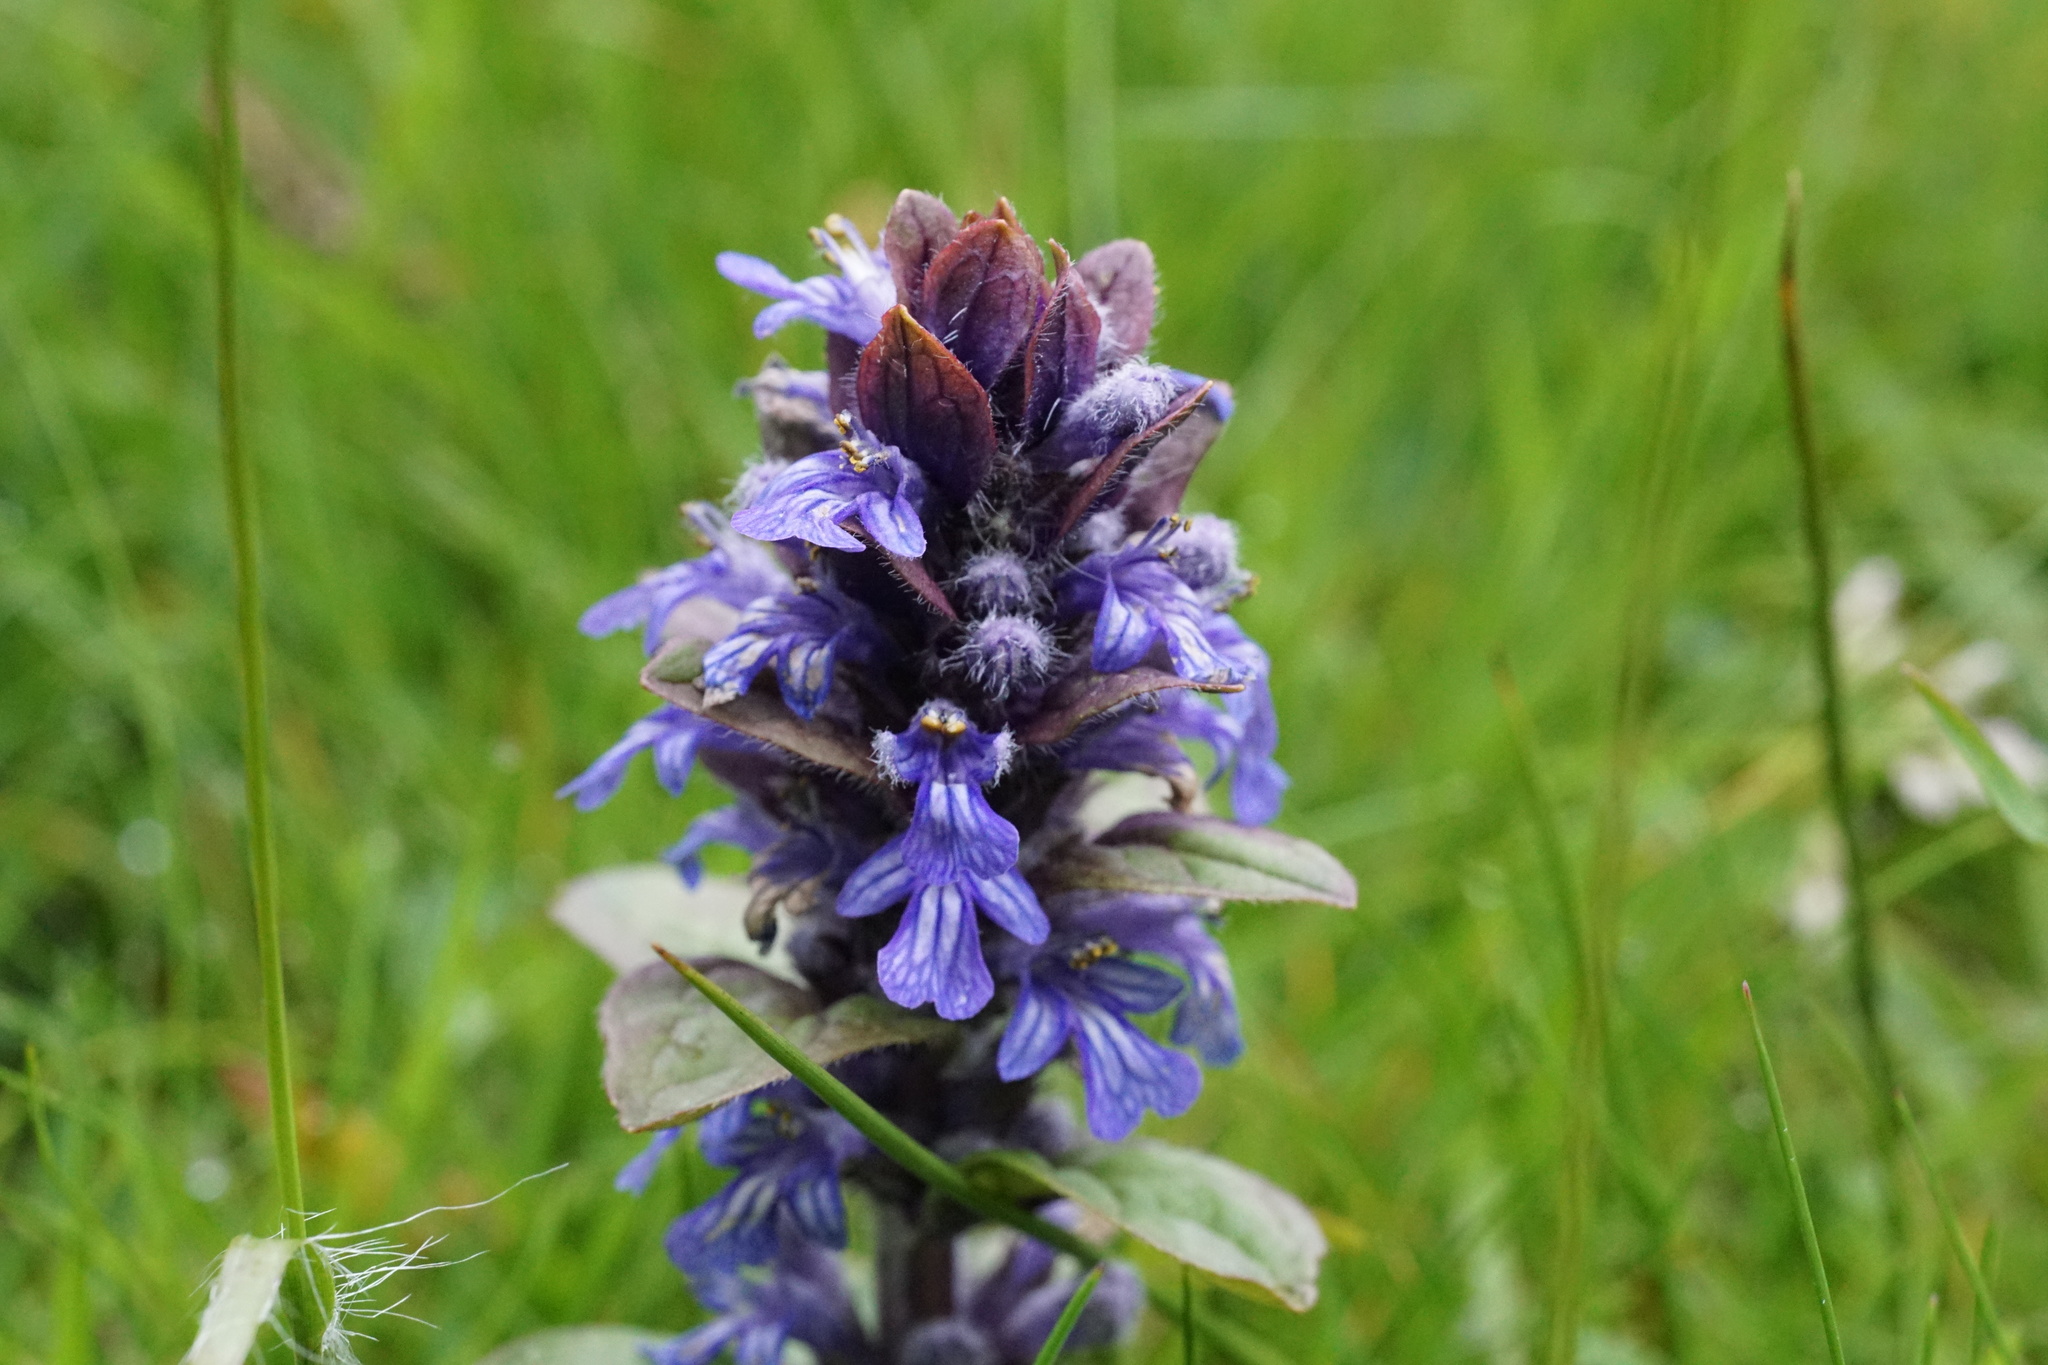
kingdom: Plantae
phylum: Tracheophyta
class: Magnoliopsida
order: Lamiales
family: Lamiaceae
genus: Ajuga
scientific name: Ajuga reptans
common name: Bugle
